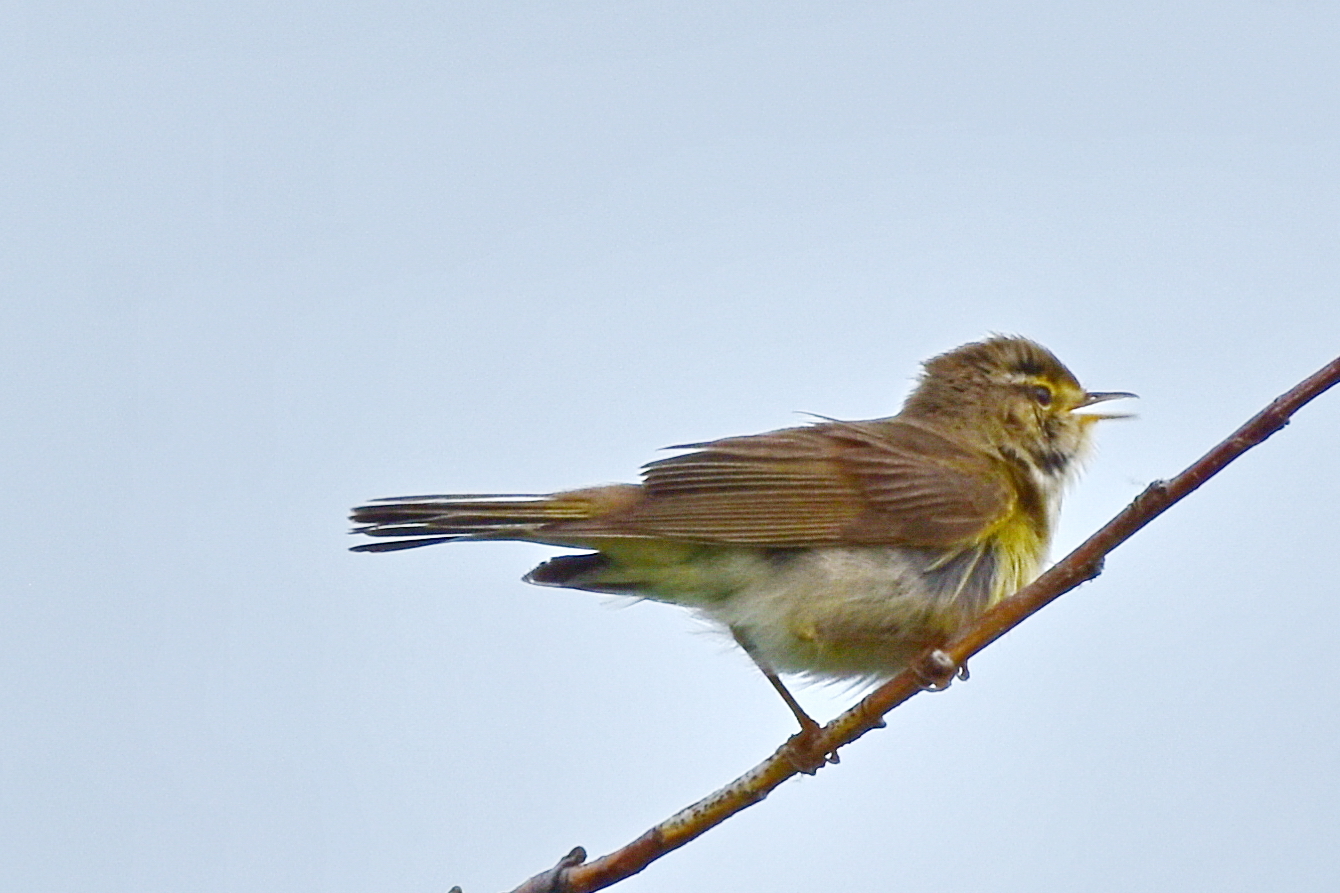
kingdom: Animalia
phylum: Chordata
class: Aves
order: Passeriformes
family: Phylloscopidae
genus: Phylloscopus
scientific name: Phylloscopus trochilus
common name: Willow warbler
